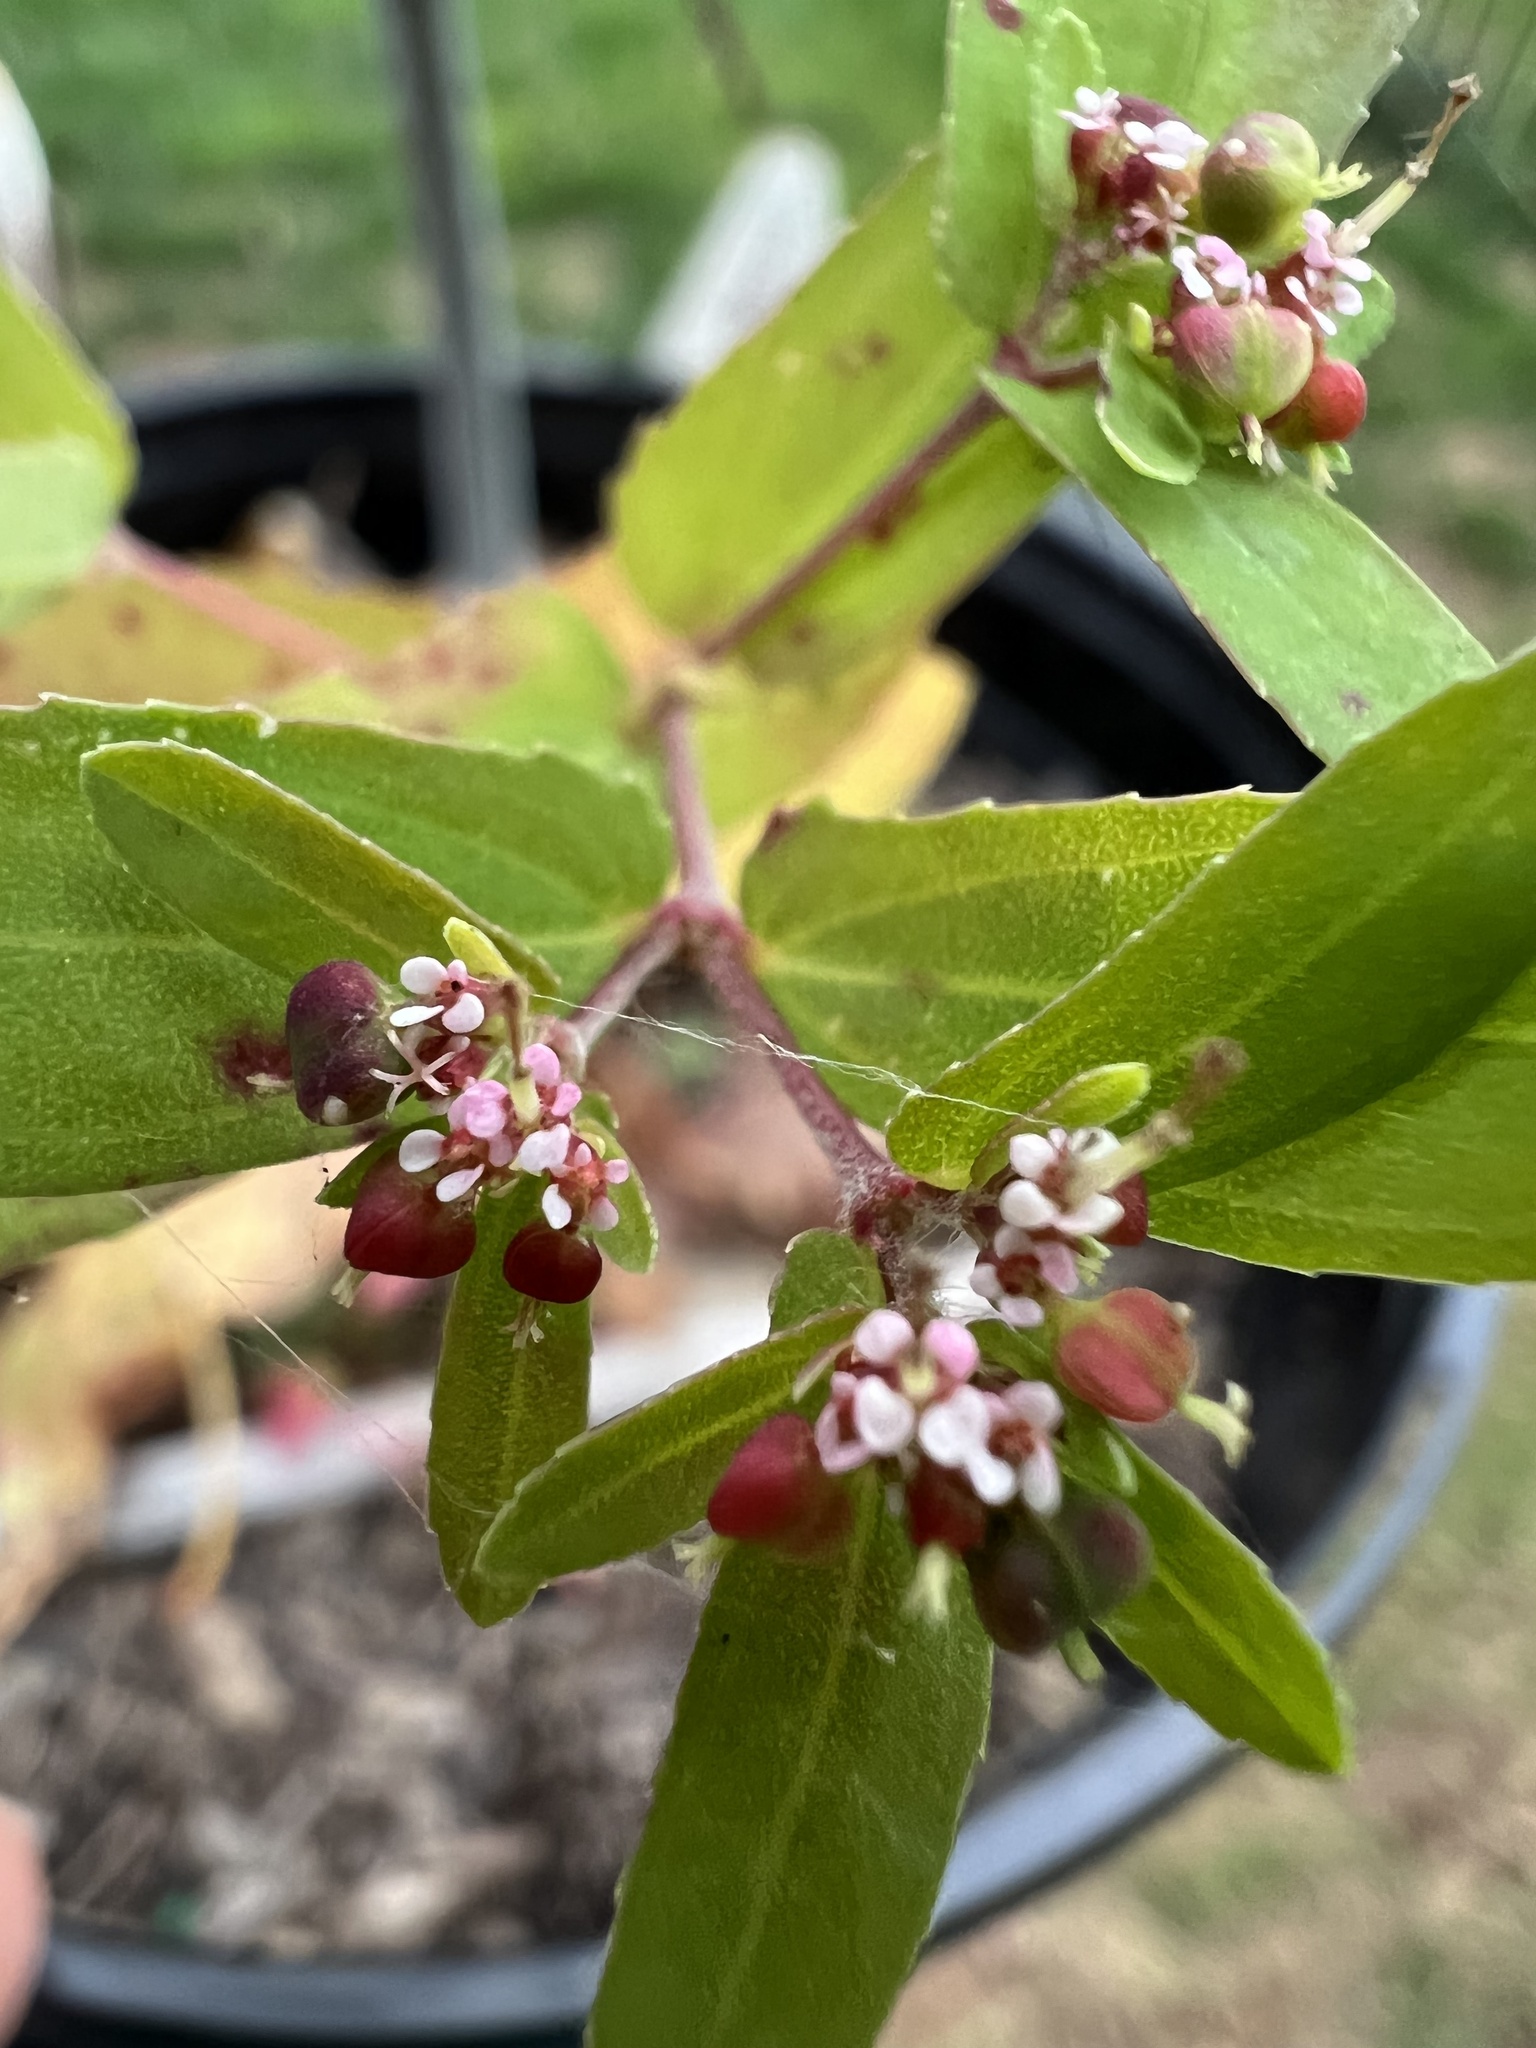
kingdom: Plantae
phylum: Tracheophyta
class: Magnoliopsida
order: Malpighiales
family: Euphorbiaceae
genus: Euphorbia
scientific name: Euphorbia nutans
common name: Eyebane
